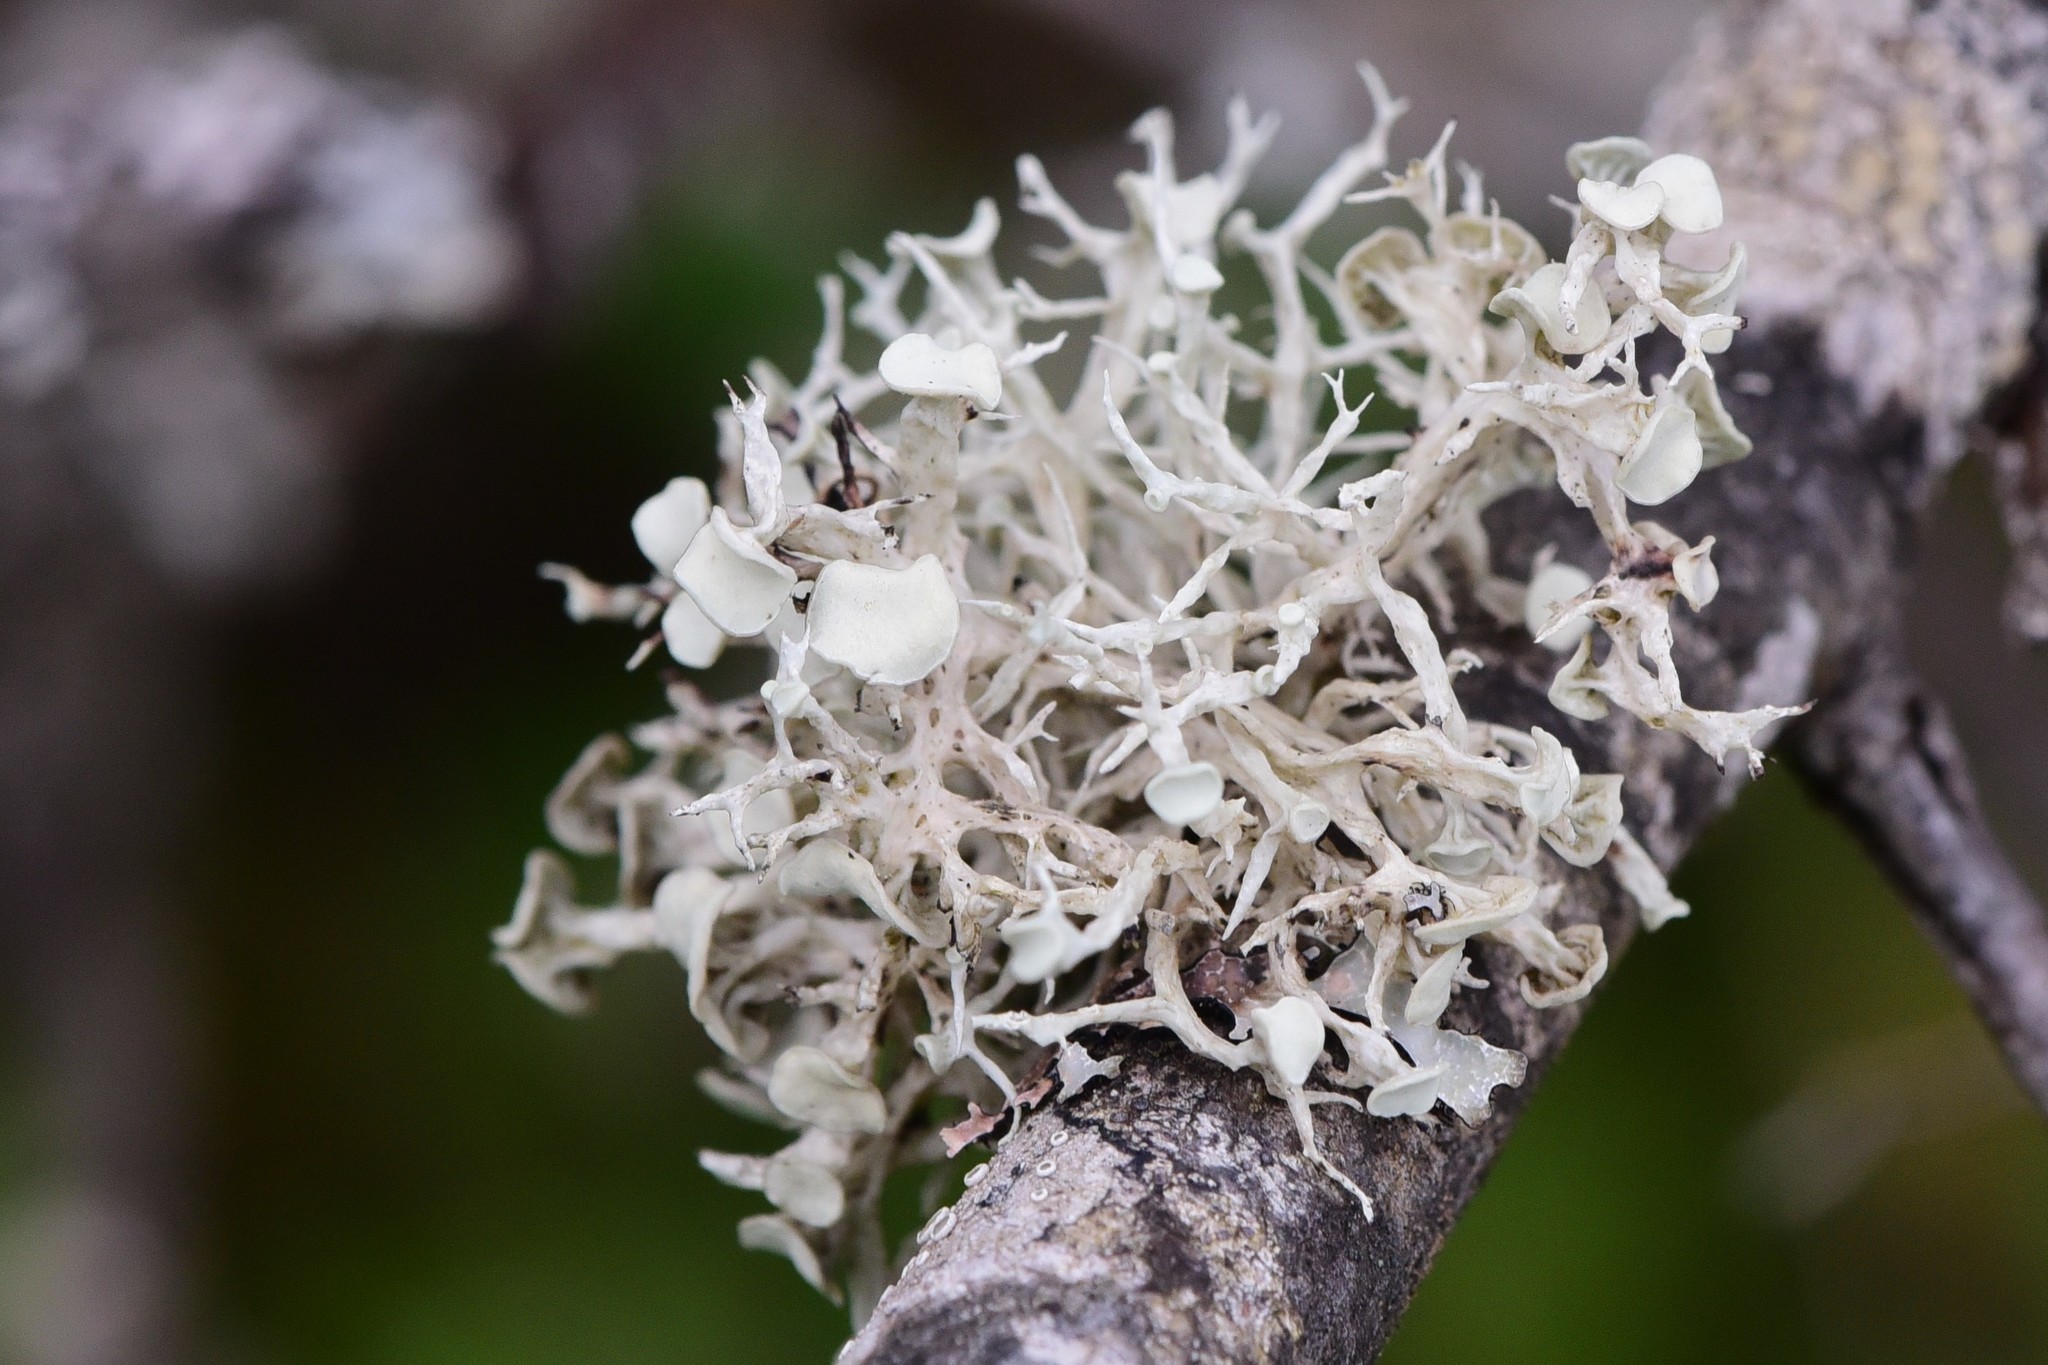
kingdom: Fungi
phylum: Ascomycota
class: Lecanoromycetes
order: Lecanorales
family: Ramalinaceae
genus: Ramalina
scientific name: Ramalina dilacerata
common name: Punctured bushy lichen
